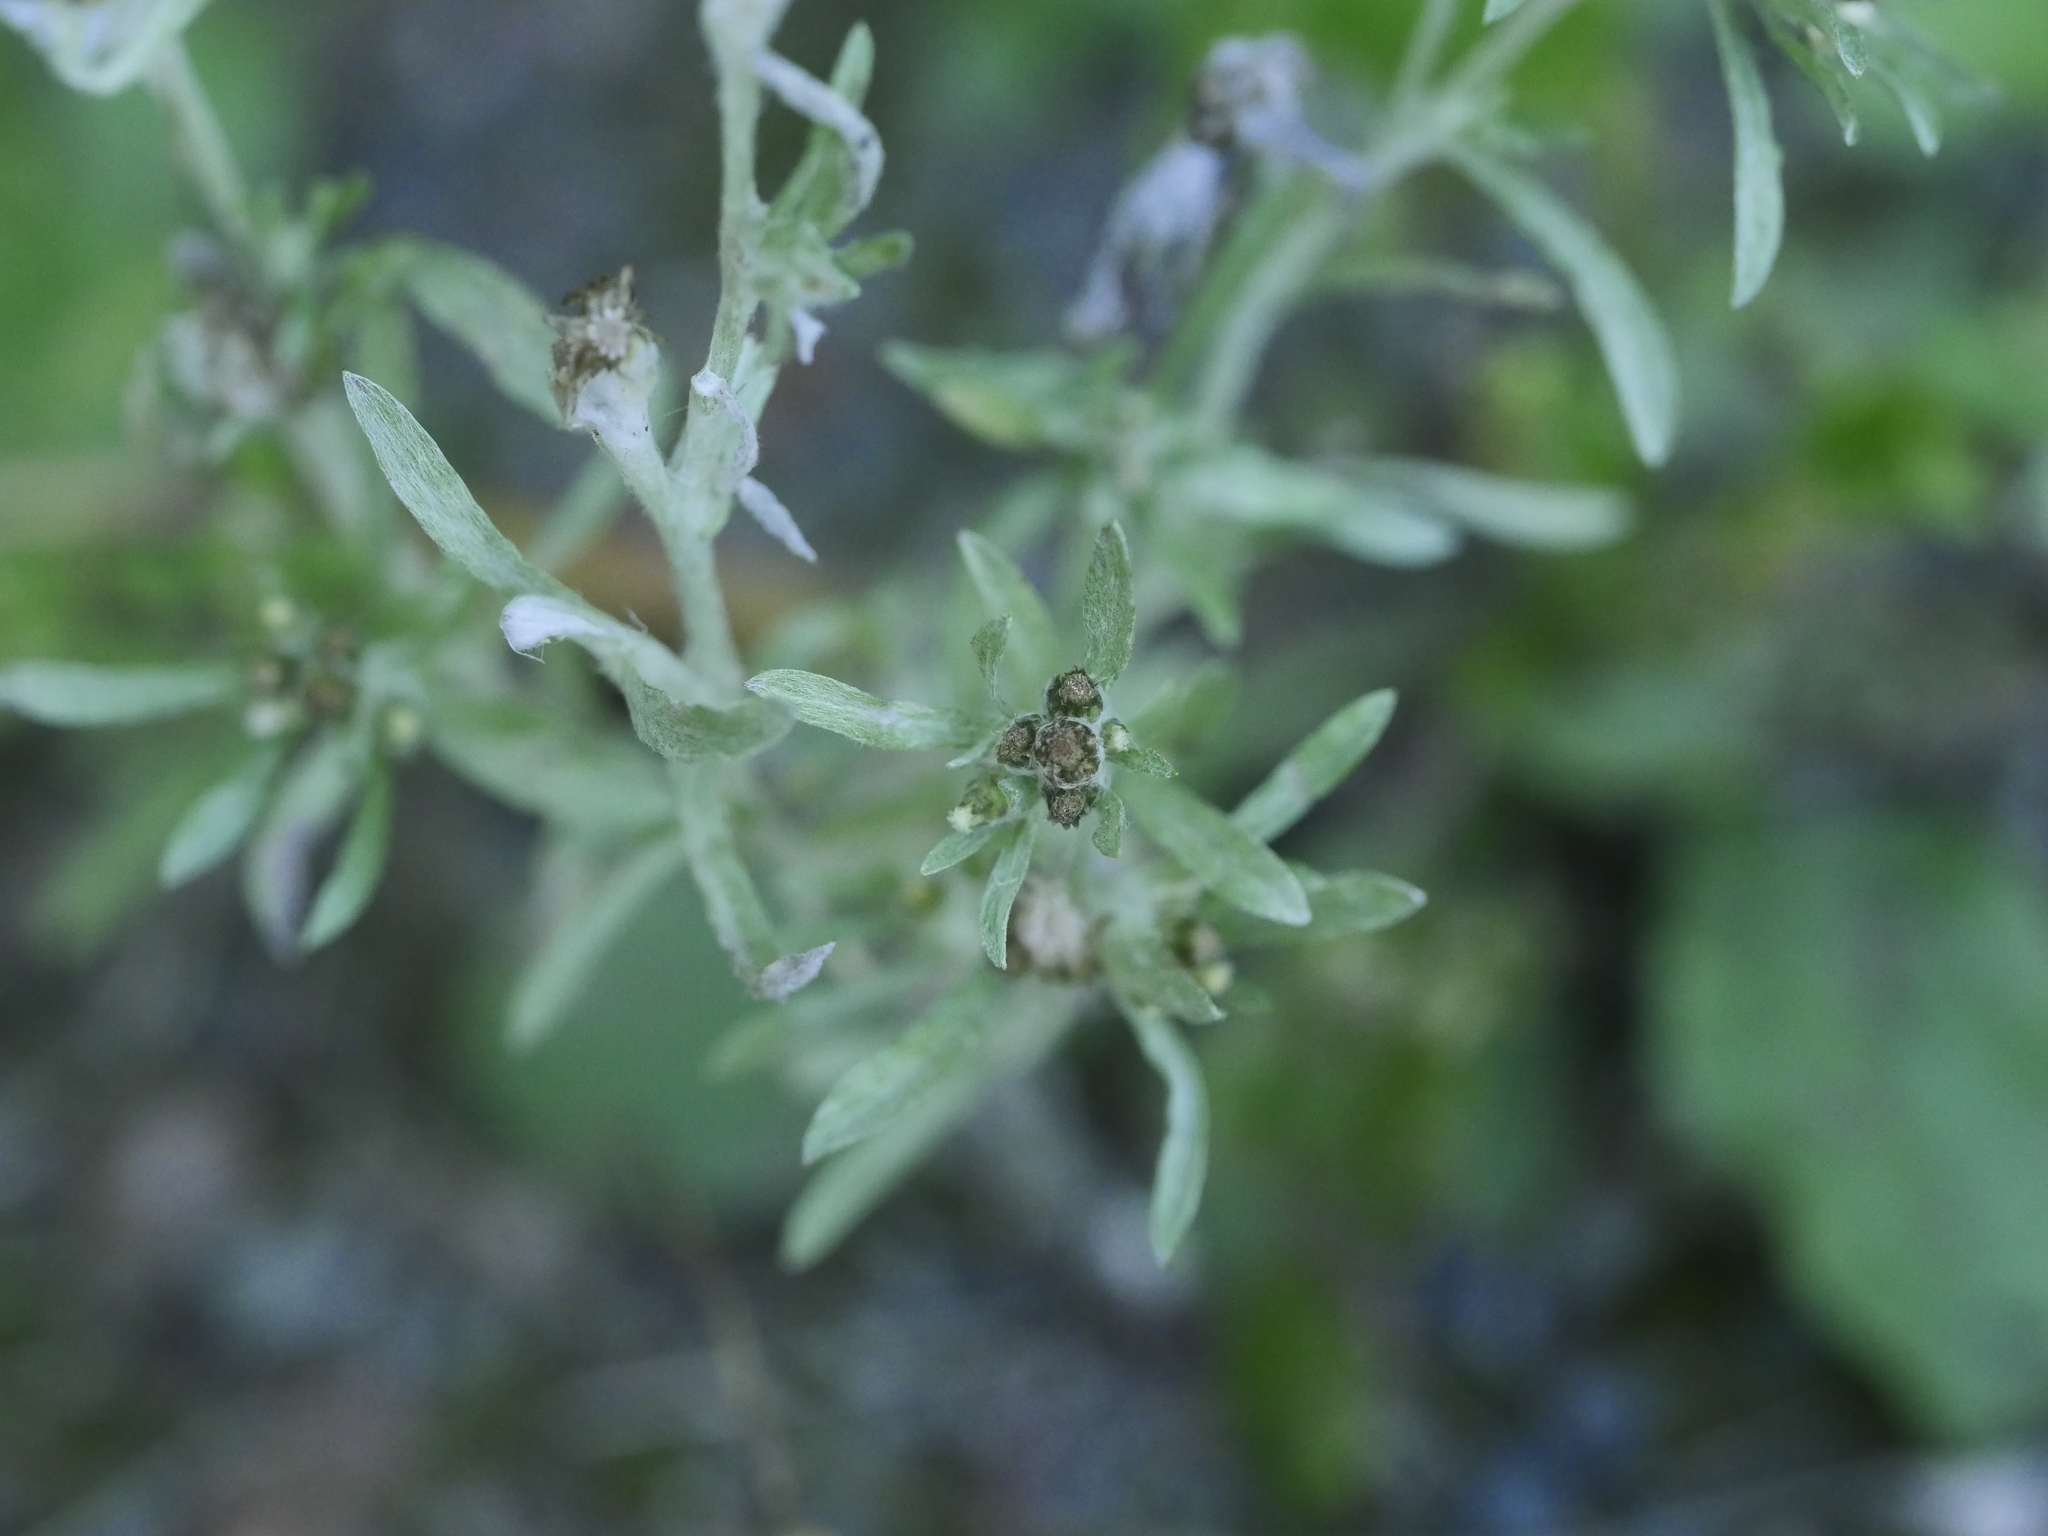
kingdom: Plantae
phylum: Tracheophyta
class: Magnoliopsida
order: Asterales
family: Asteraceae
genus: Gnaphalium
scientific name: Gnaphalium uliginosum
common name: Marsh cudweed
